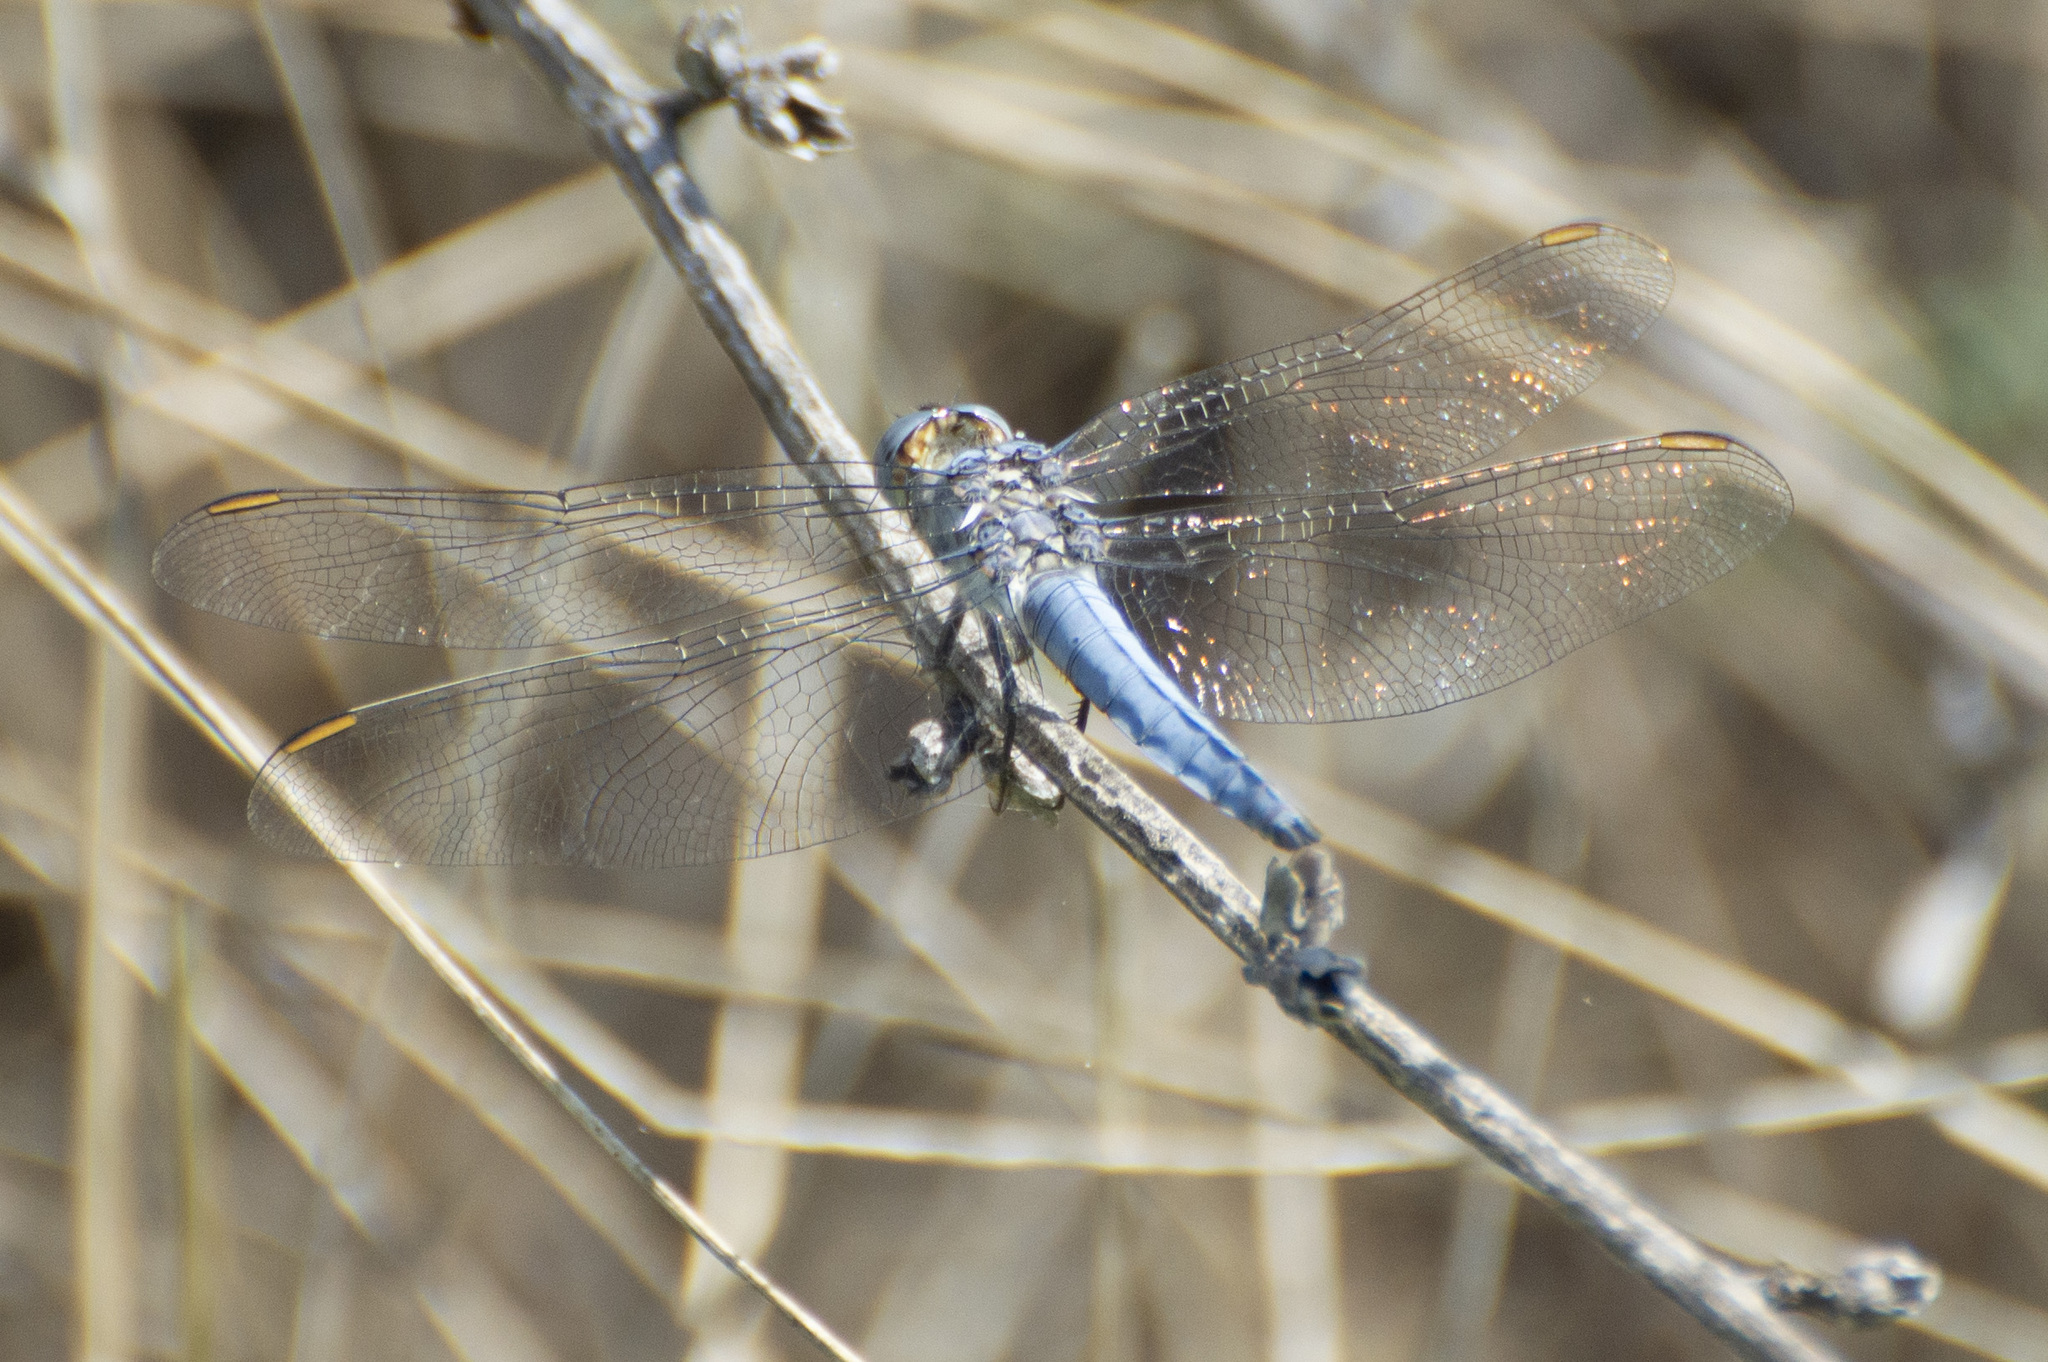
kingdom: Animalia
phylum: Arthropoda
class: Insecta
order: Odonata
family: Libellulidae
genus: Orthetrum
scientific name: Orthetrum brunneum
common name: Southern skimmer
